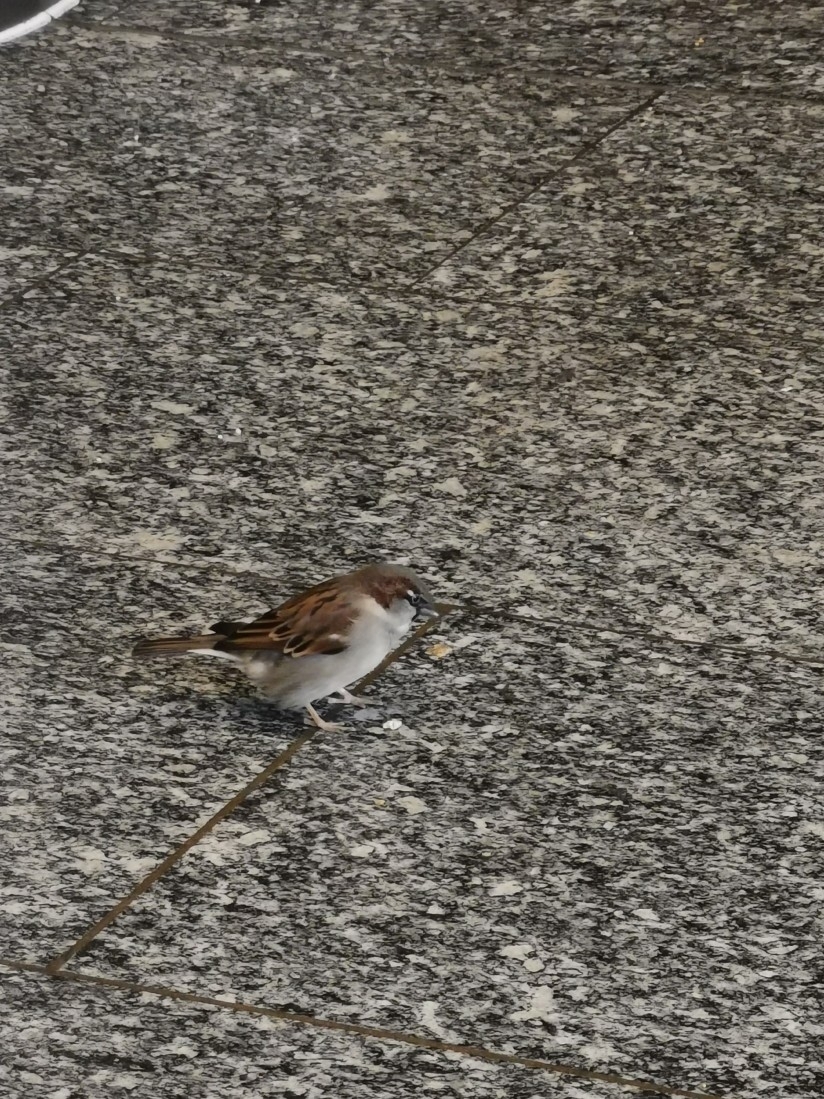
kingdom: Animalia
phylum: Chordata
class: Aves
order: Passeriformes
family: Passeridae
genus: Passer
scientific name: Passer domesticus
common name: House sparrow
